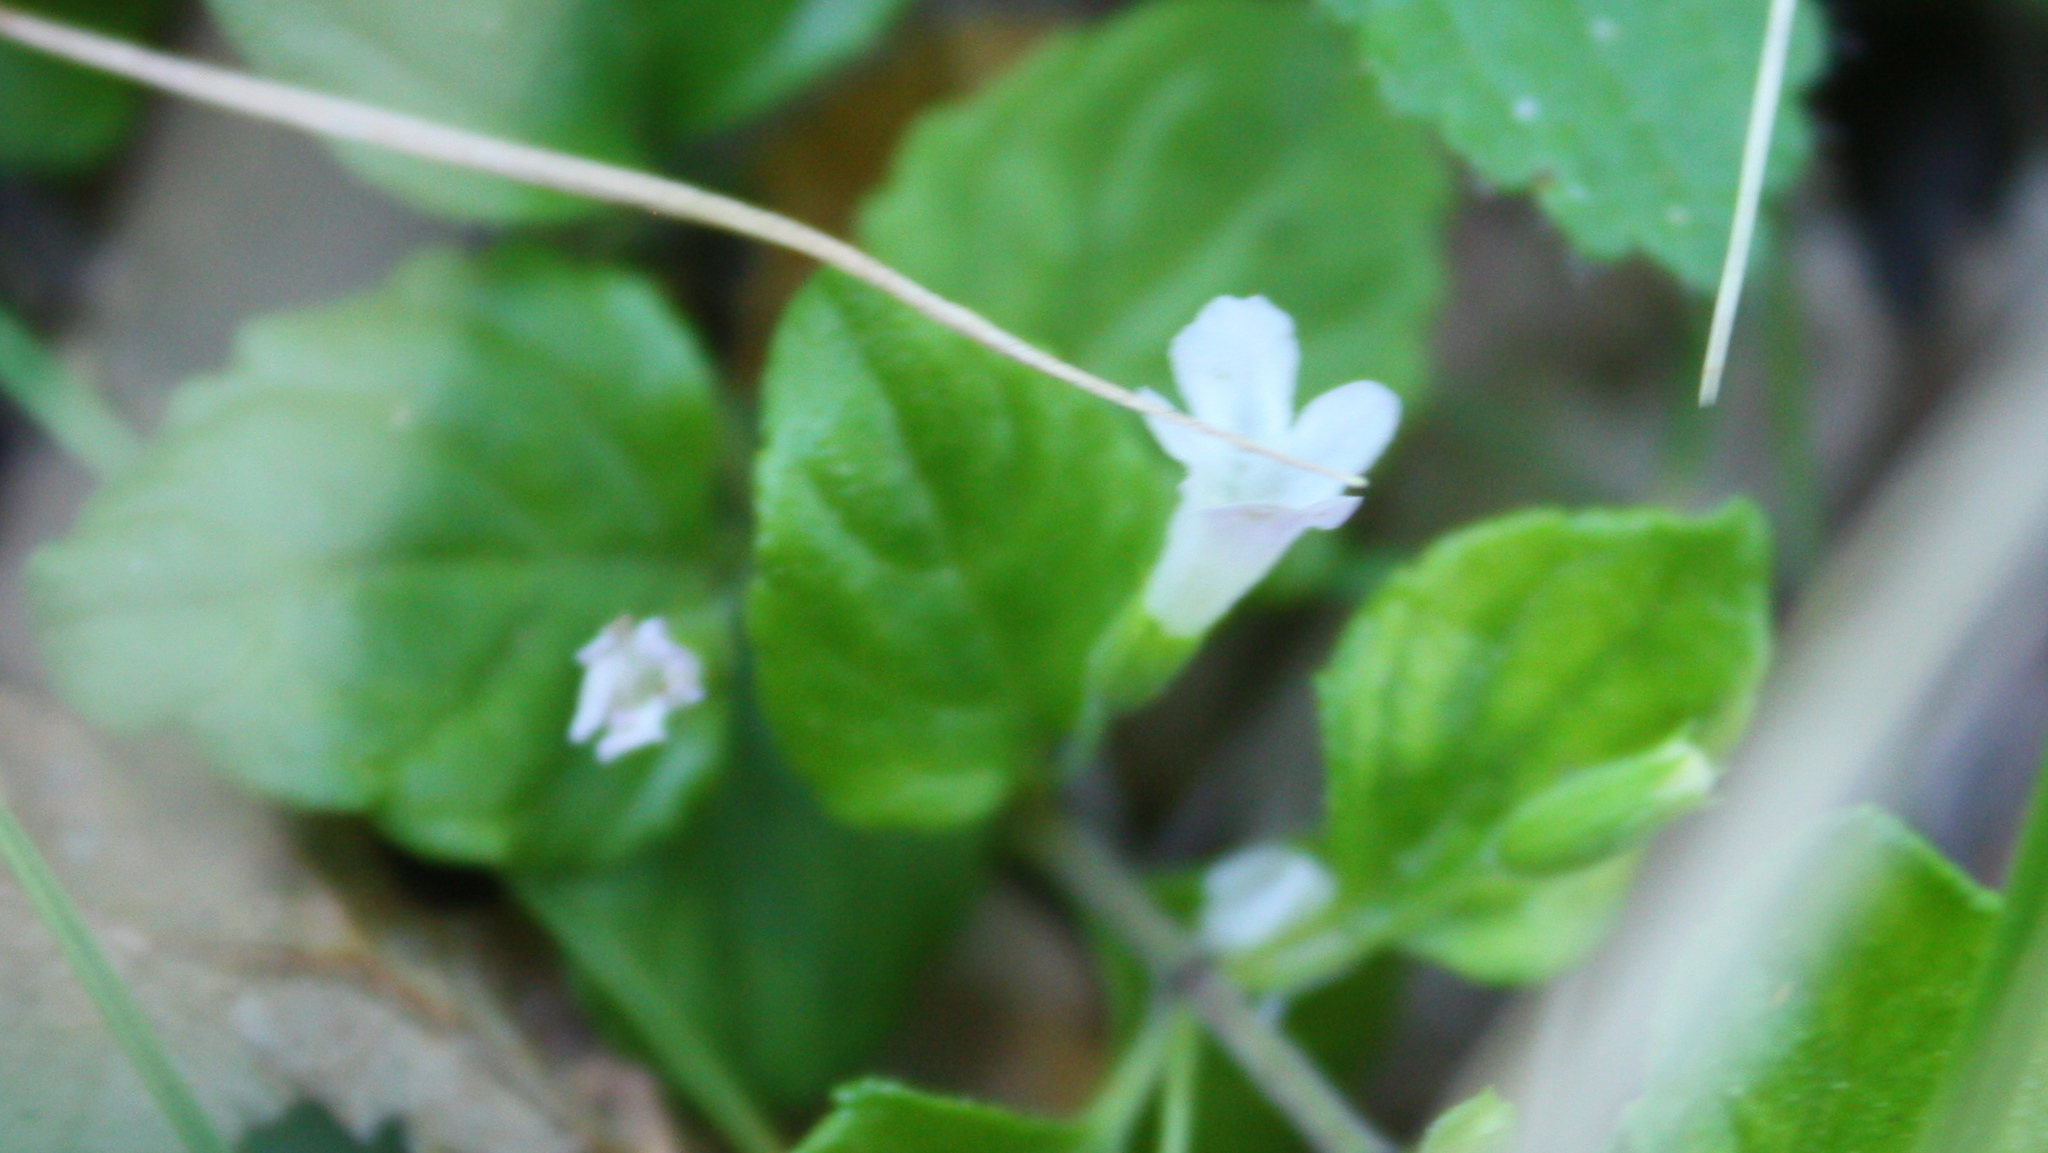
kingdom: Plantae
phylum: Tracheophyta
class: Magnoliopsida
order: Lamiales
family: Lamiaceae
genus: Micromeria
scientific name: Micromeria douglasii
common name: Yerba buena
